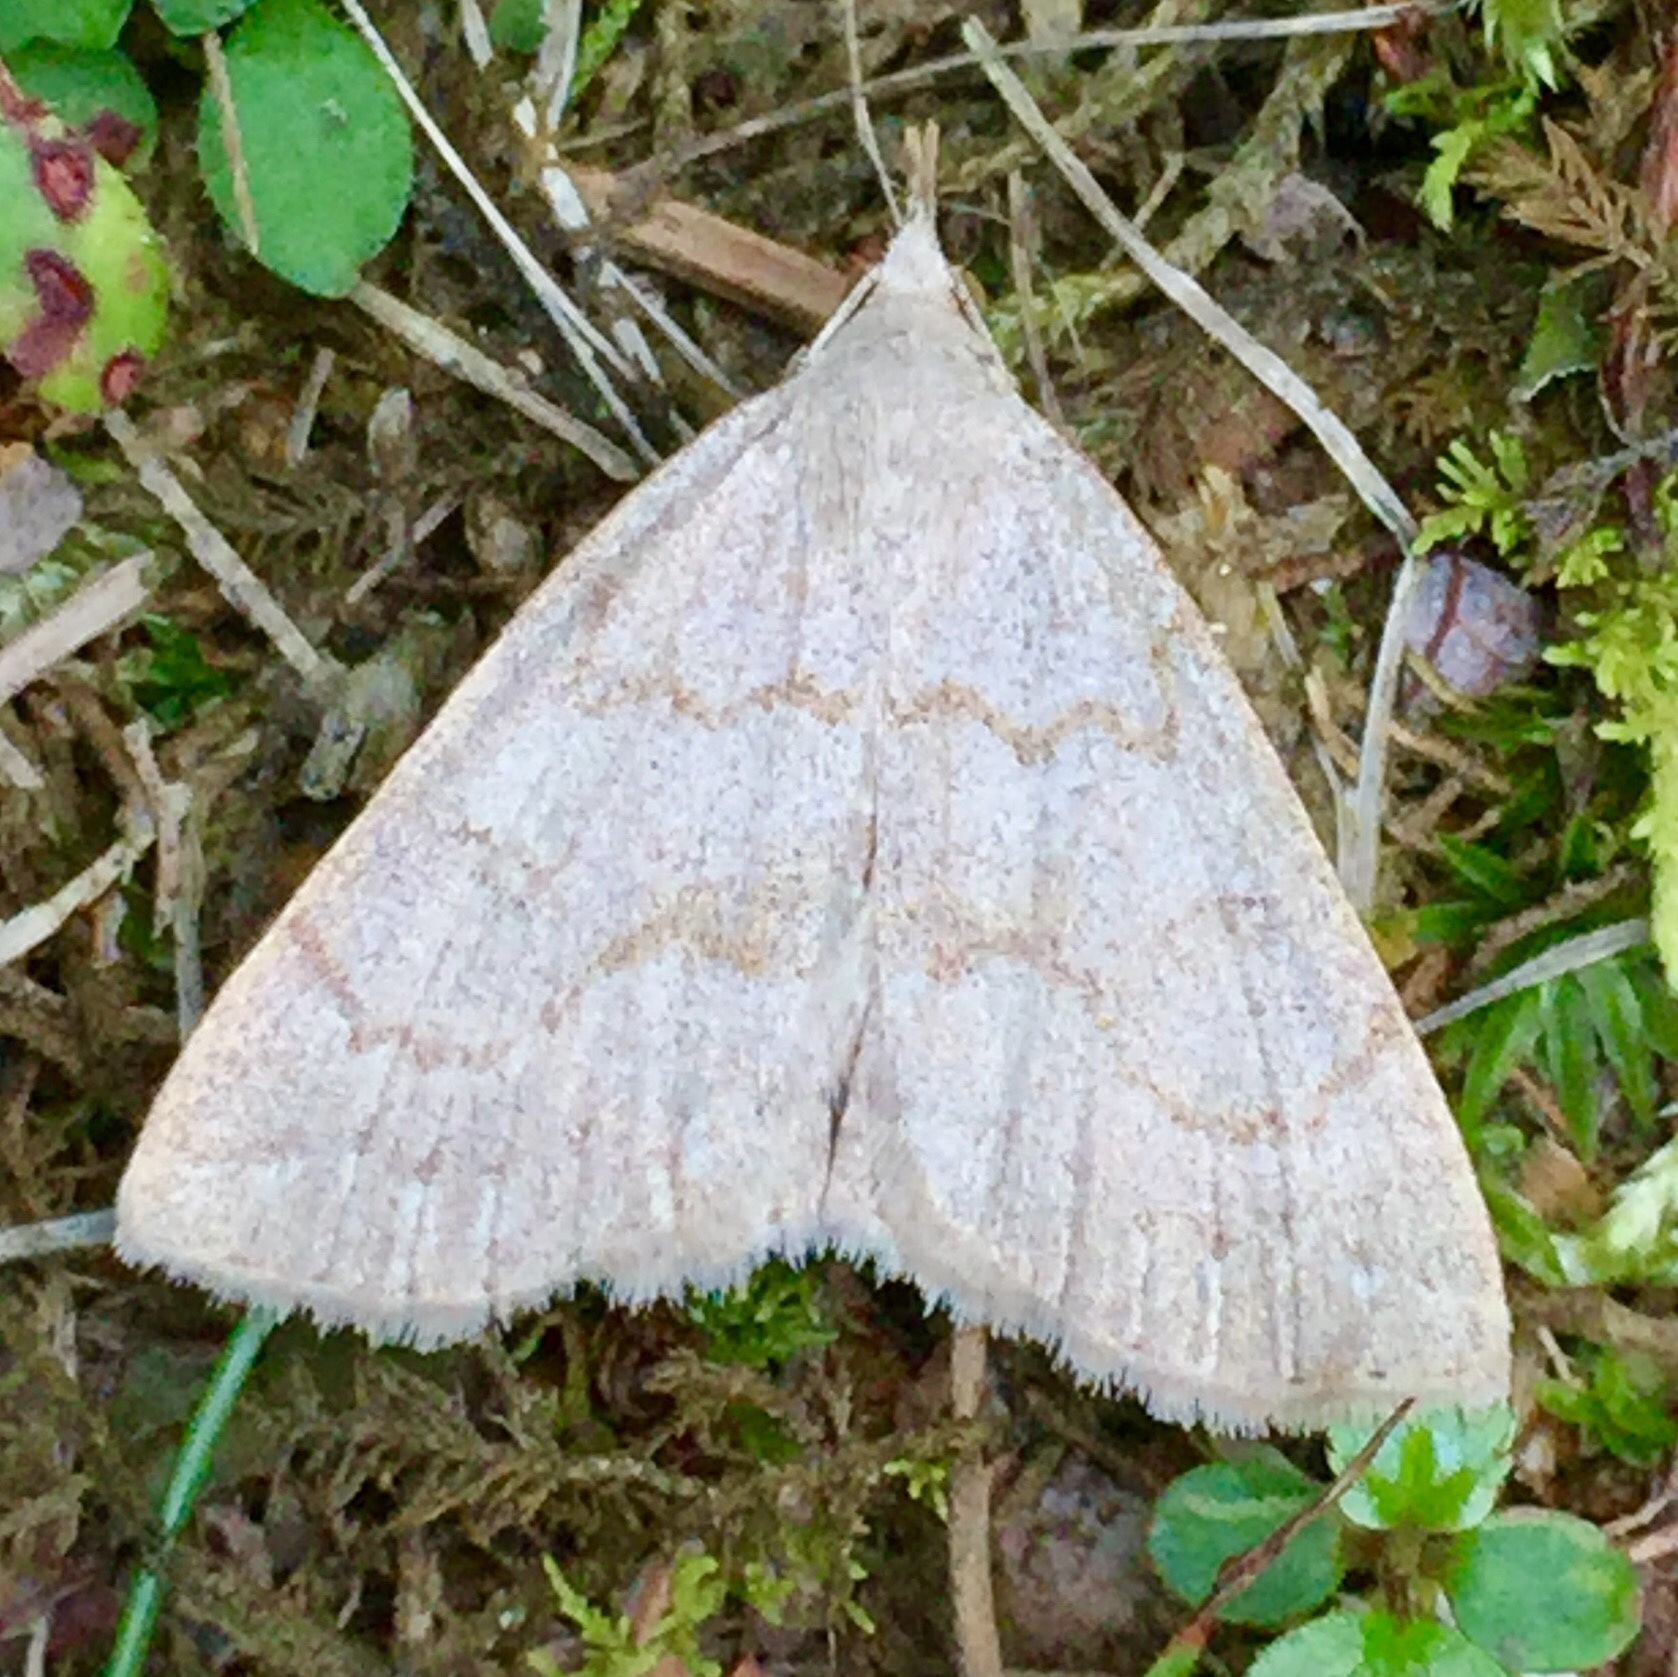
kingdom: Animalia
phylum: Arthropoda
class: Insecta
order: Lepidoptera
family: Erebidae
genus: Macrochilo
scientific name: Macrochilo morbidalis
